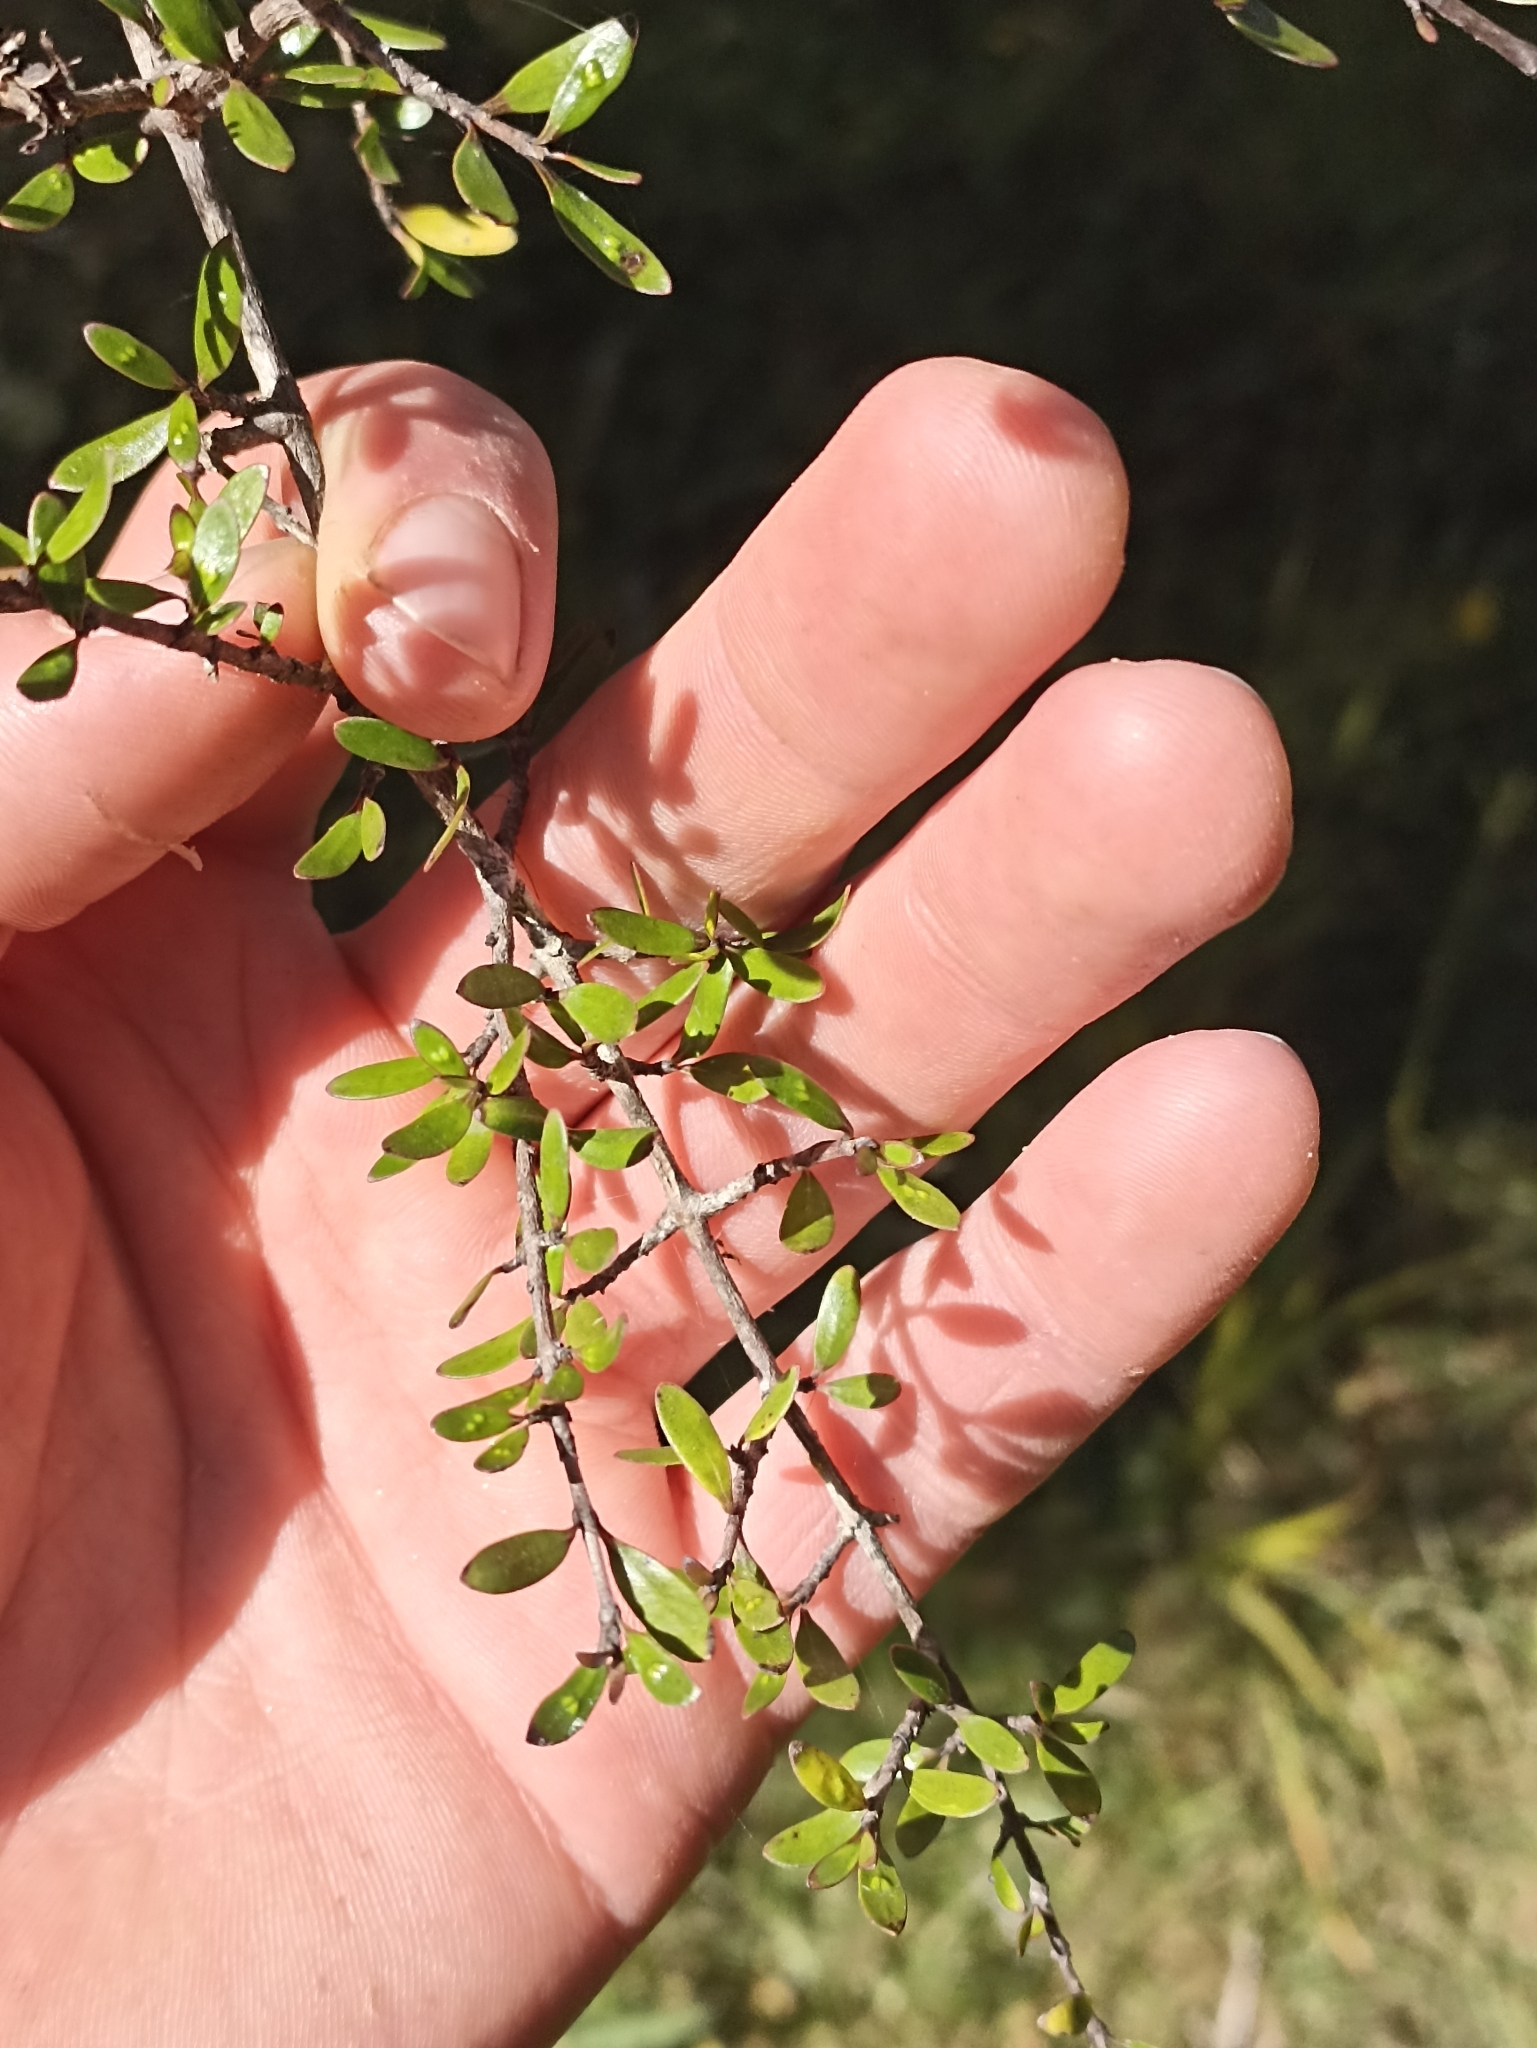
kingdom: Plantae
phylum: Tracheophyta
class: Magnoliopsida
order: Gentianales
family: Rubiaceae
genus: Coprosma
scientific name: Coprosma propinqua
